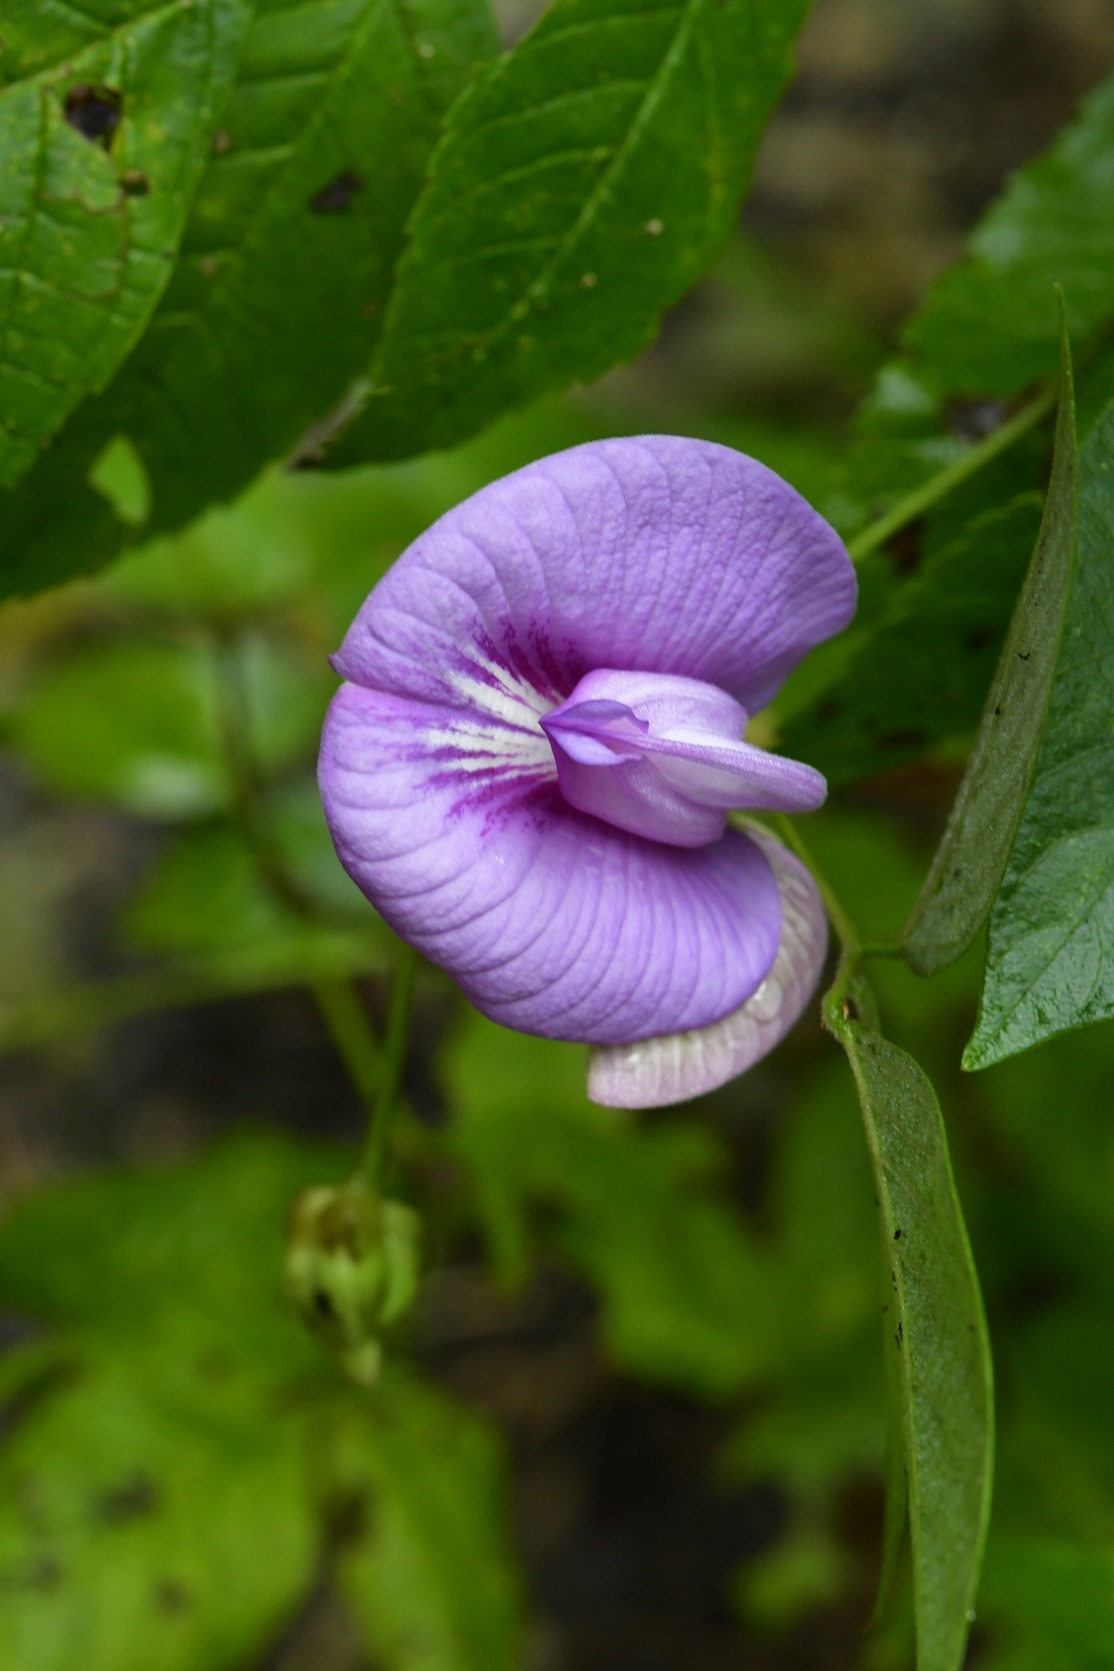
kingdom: Plantae
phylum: Tracheophyta
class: Magnoliopsida
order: Fabales
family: Fabaceae
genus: Centrosema
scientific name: Centrosema virginianum
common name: Butterfly-pea
